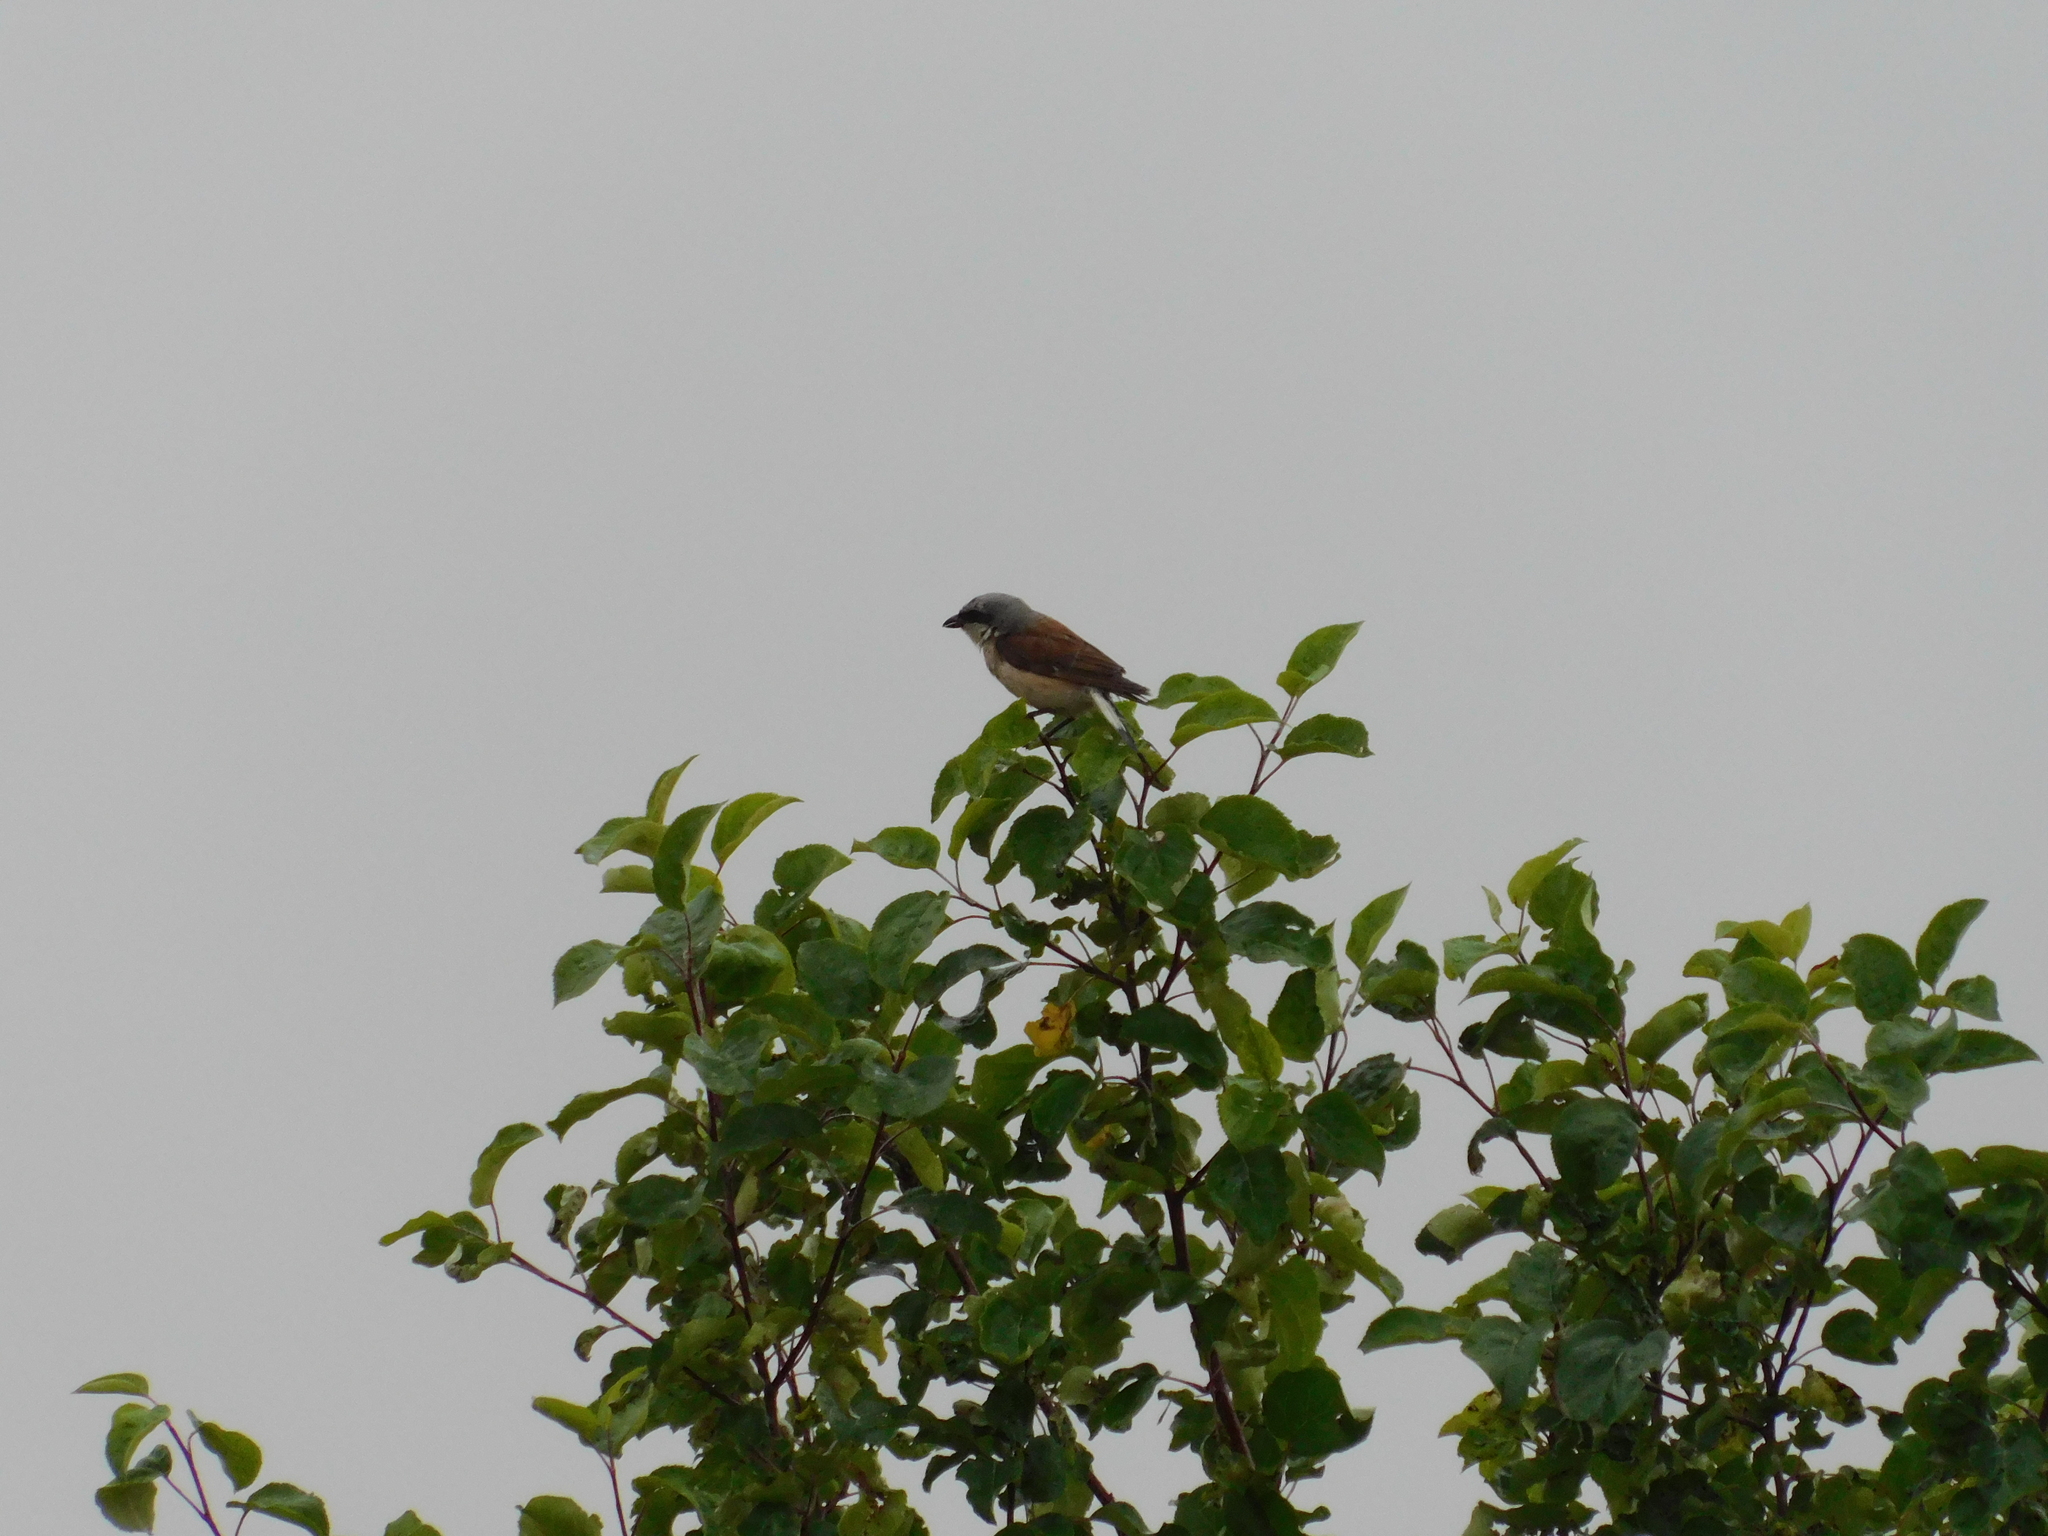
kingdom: Animalia
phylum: Chordata
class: Aves
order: Passeriformes
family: Laniidae
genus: Lanius
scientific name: Lanius collurio
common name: Red-backed shrike
